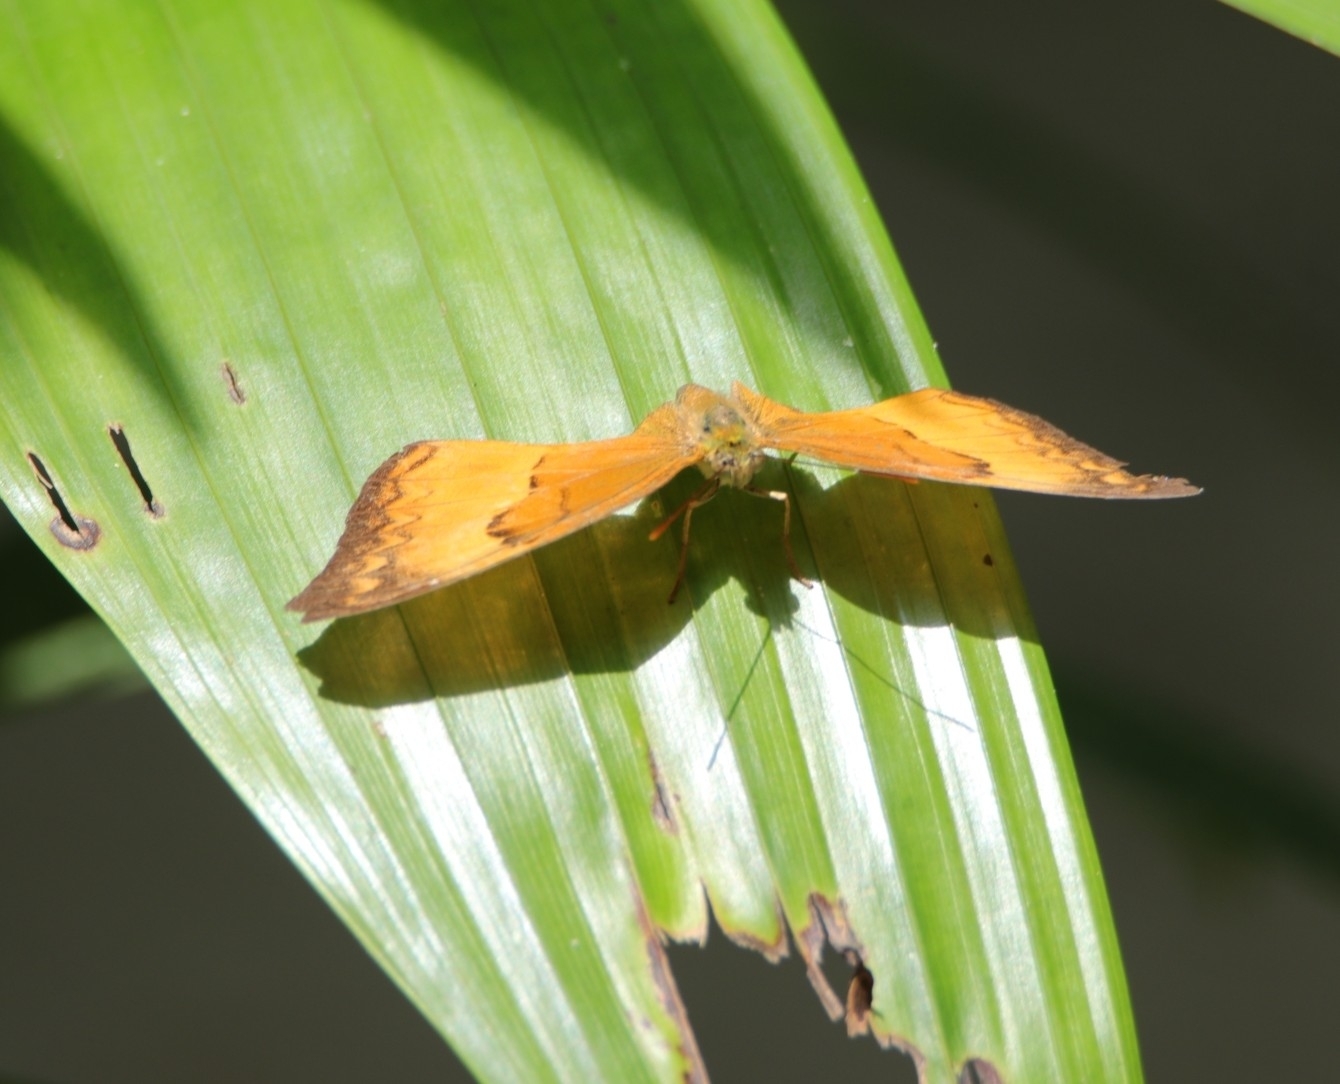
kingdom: Animalia
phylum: Arthropoda
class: Insecta
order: Lepidoptera
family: Nymphalidae
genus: Cirrochroa
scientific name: Cirrochroa thais
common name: Tamil yeoman
